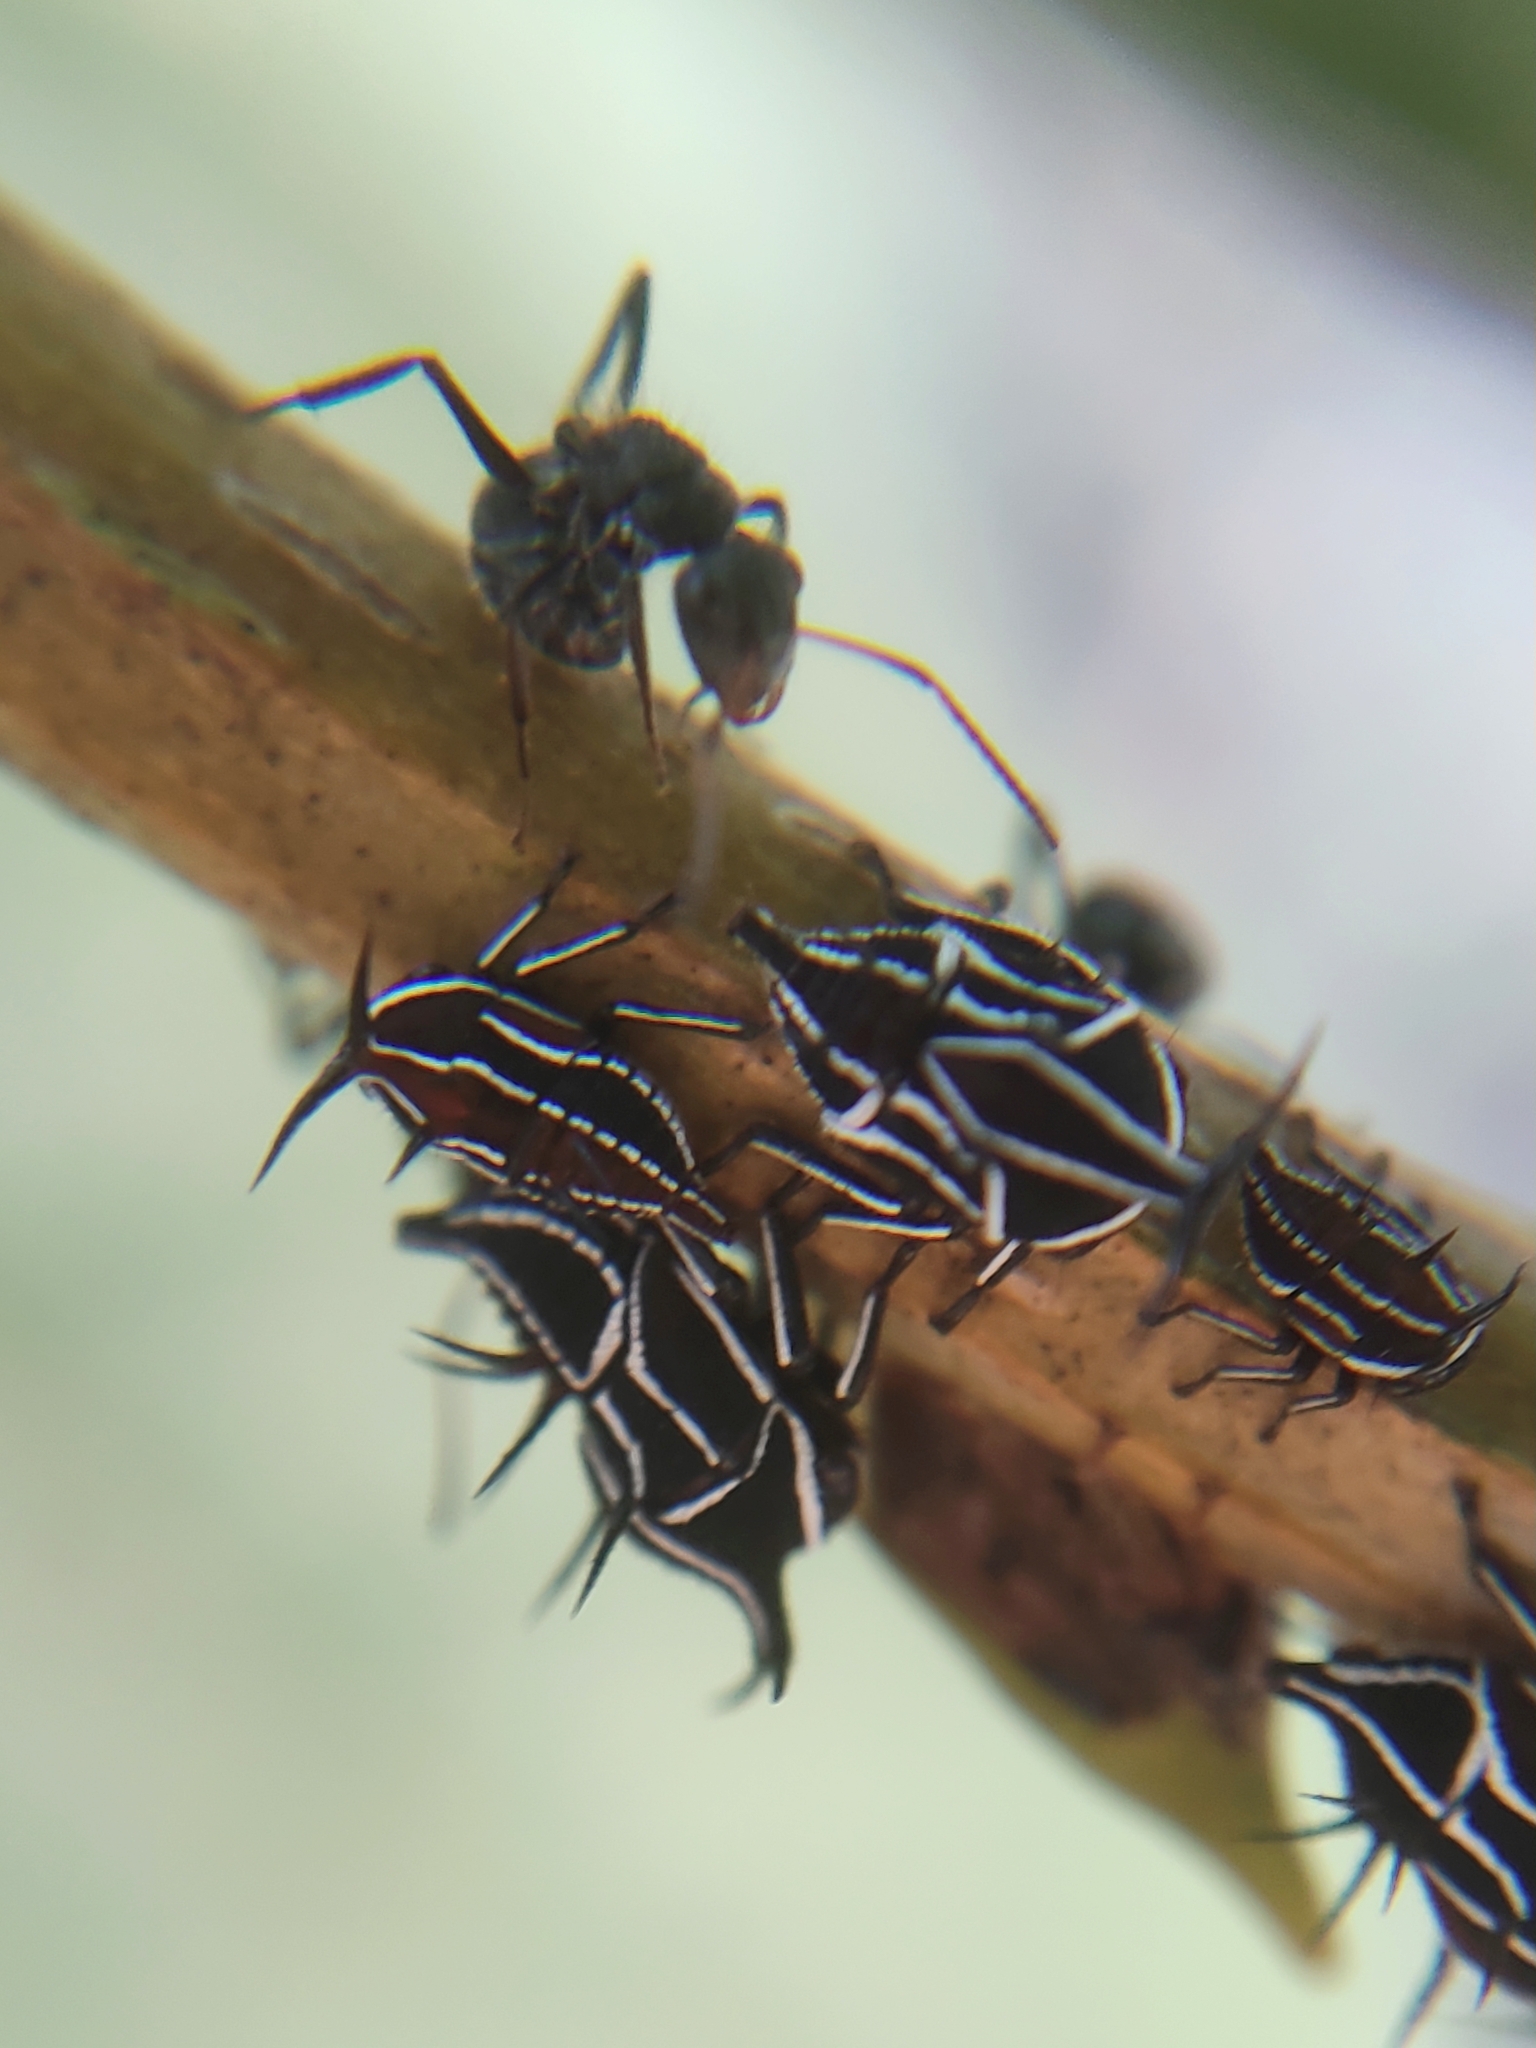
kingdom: Animalia
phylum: Arthropoda
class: Insecta
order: Hemiptera
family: Membracidae
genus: Guayaquila
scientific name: Guayaquila xiphias
